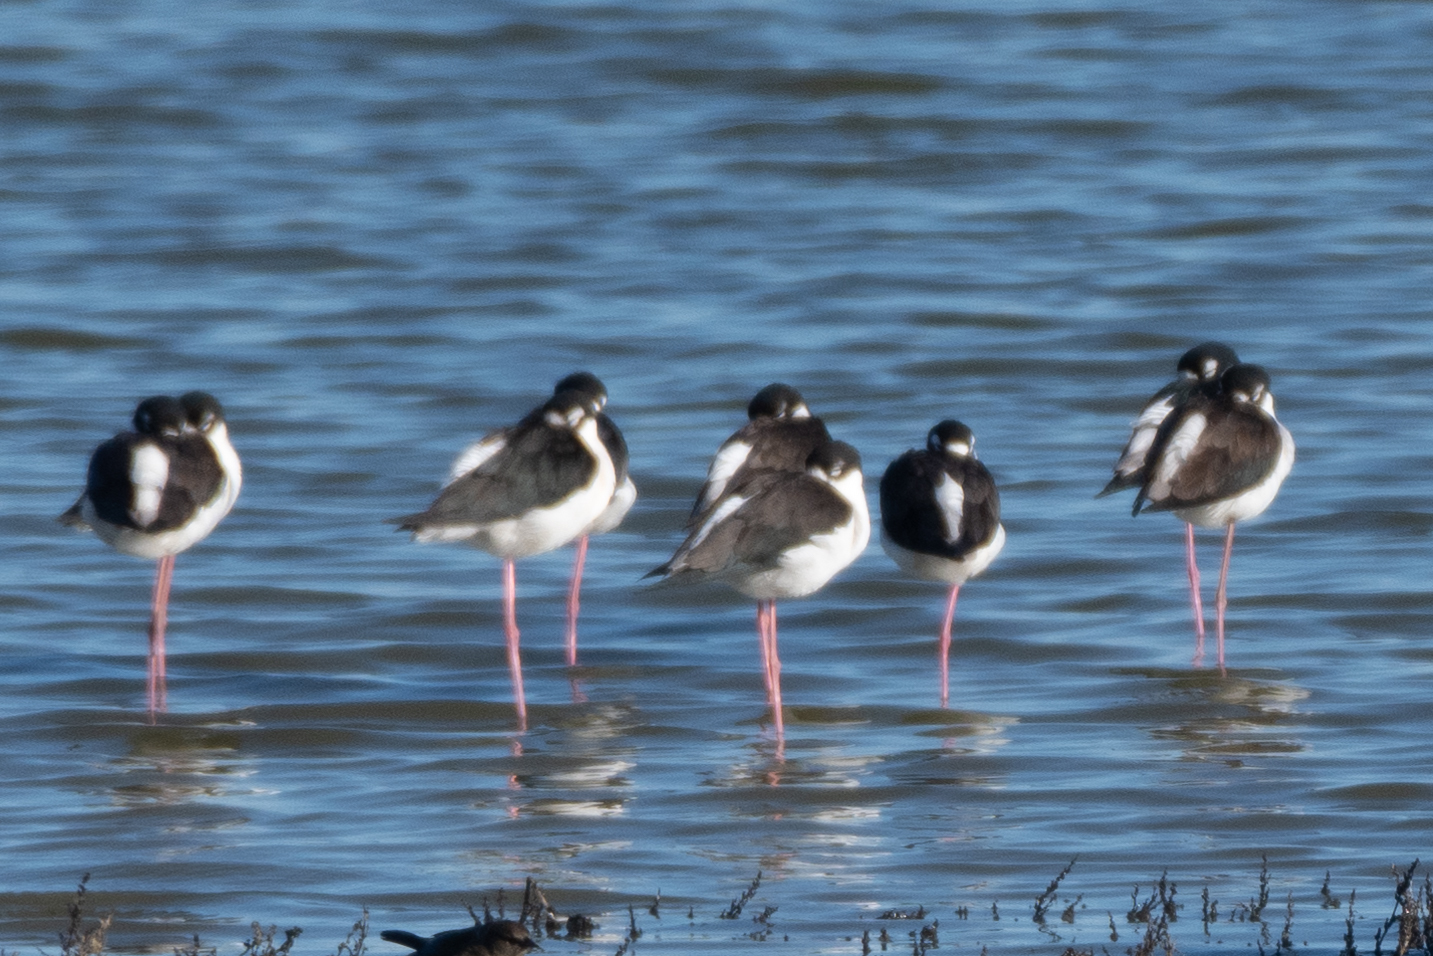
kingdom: Animalia
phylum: Chordata
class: Aves
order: Charadriiformes
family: Recurvirostridae
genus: Himantopus
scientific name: Himantopus mexicanus
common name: Black-necked stilt
